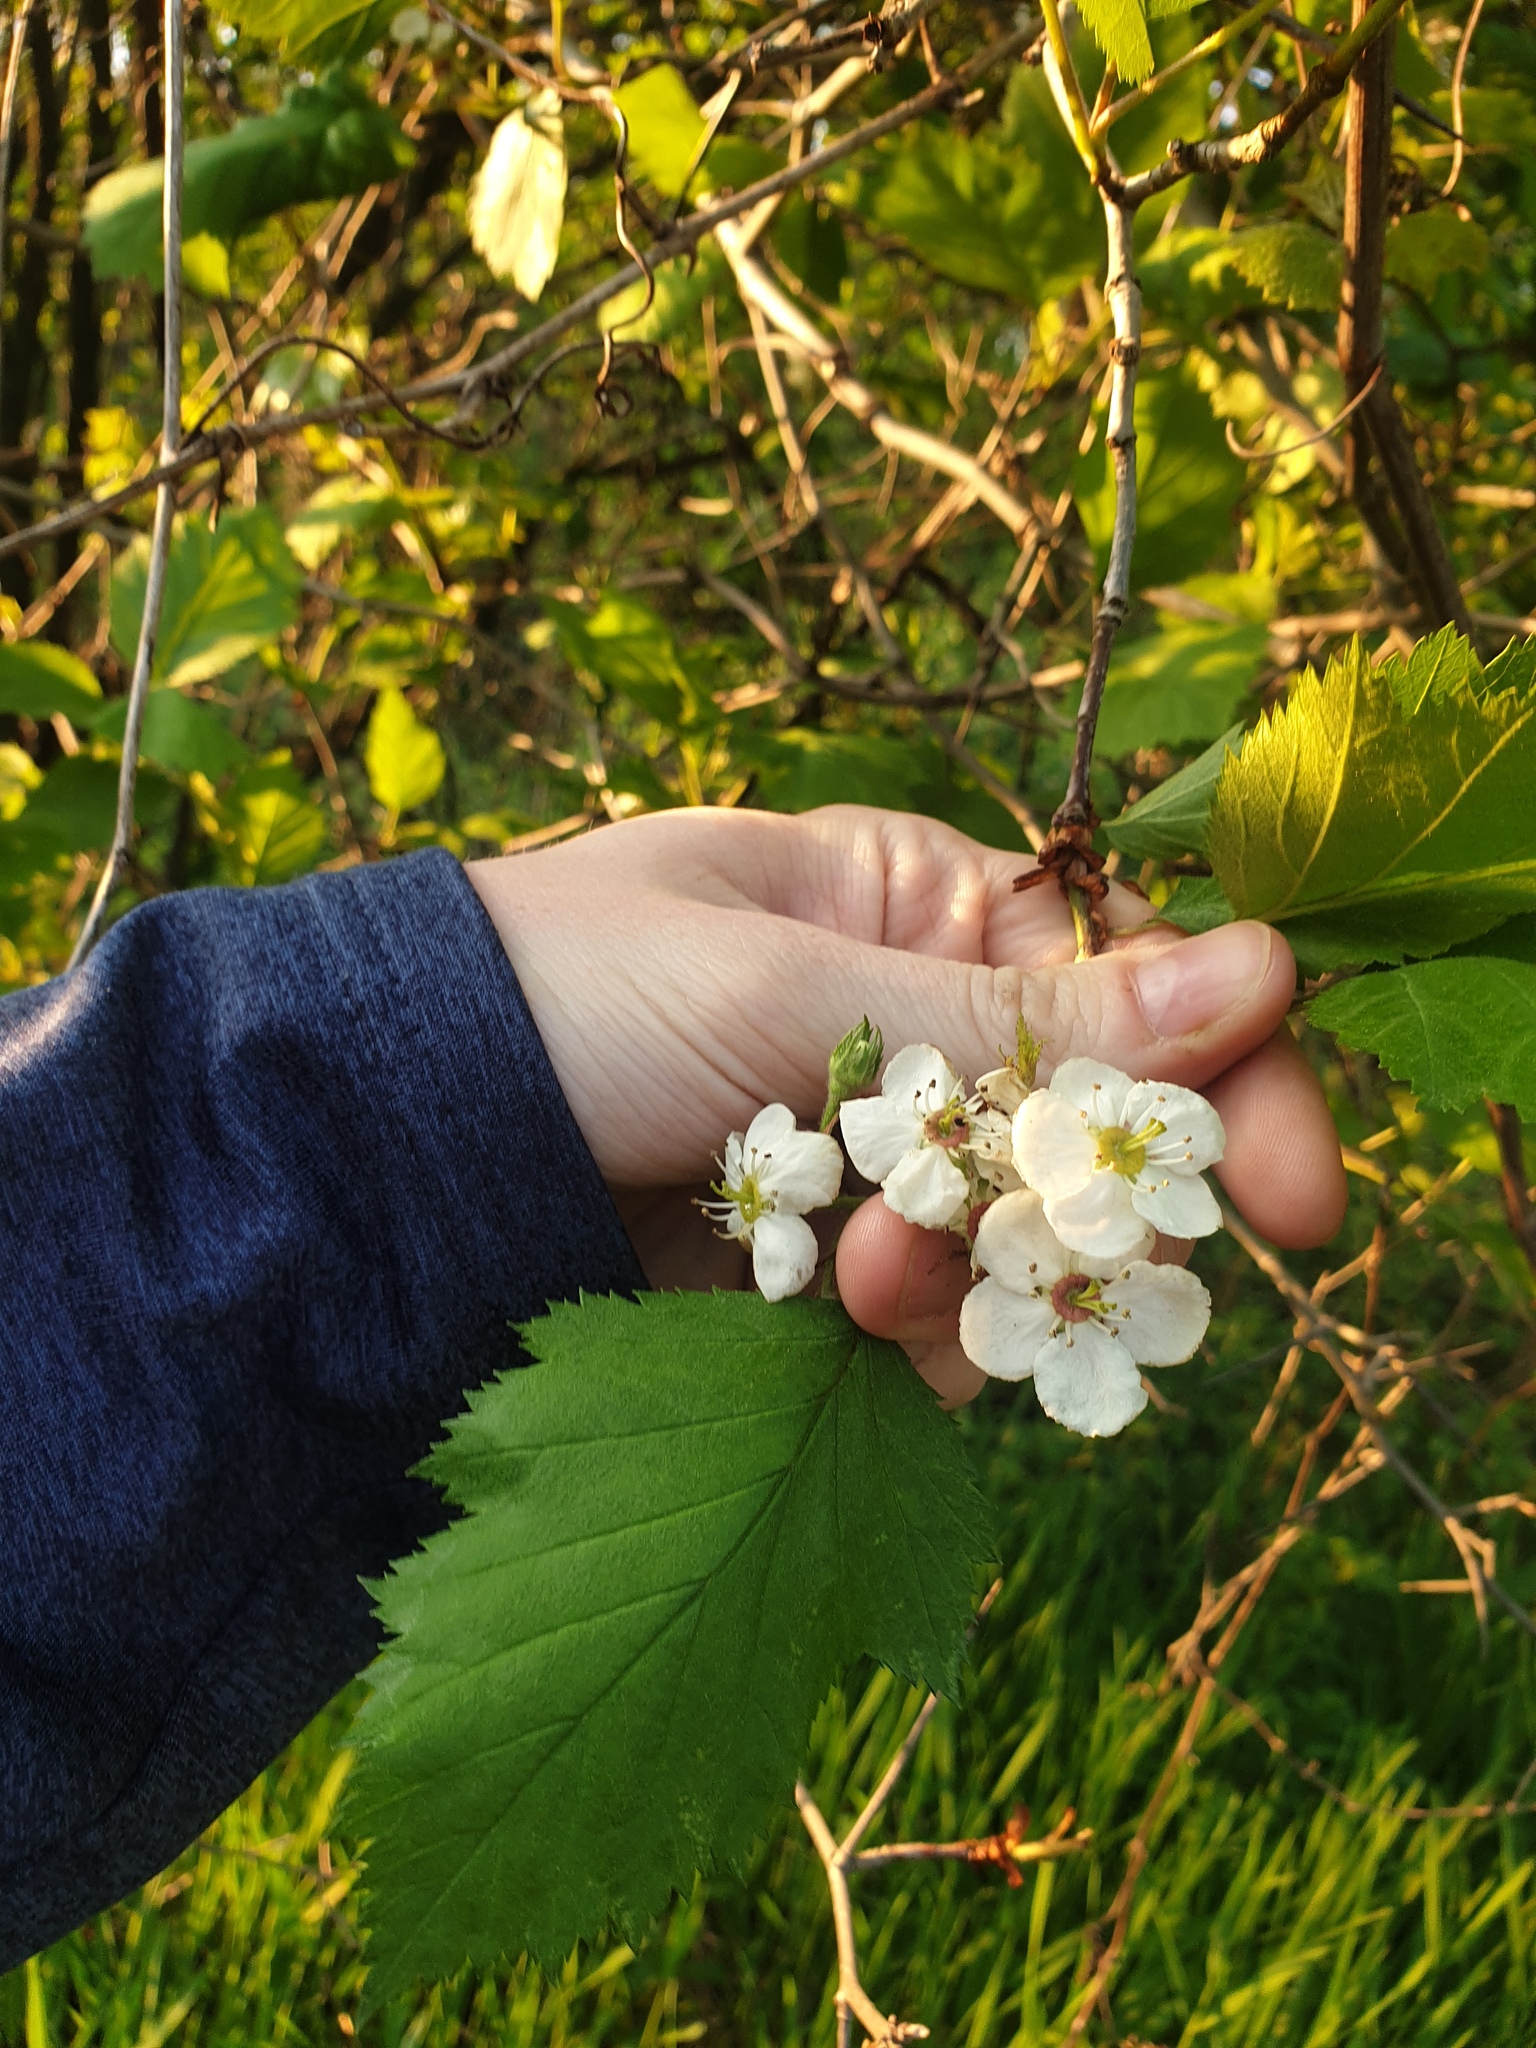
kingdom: Plantae
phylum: Tracheophyta
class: Magnoliopsida
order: Rosales
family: Rosaceae
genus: Crataegus
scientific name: Crataegus submollis
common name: Hairy cockspurthorn
